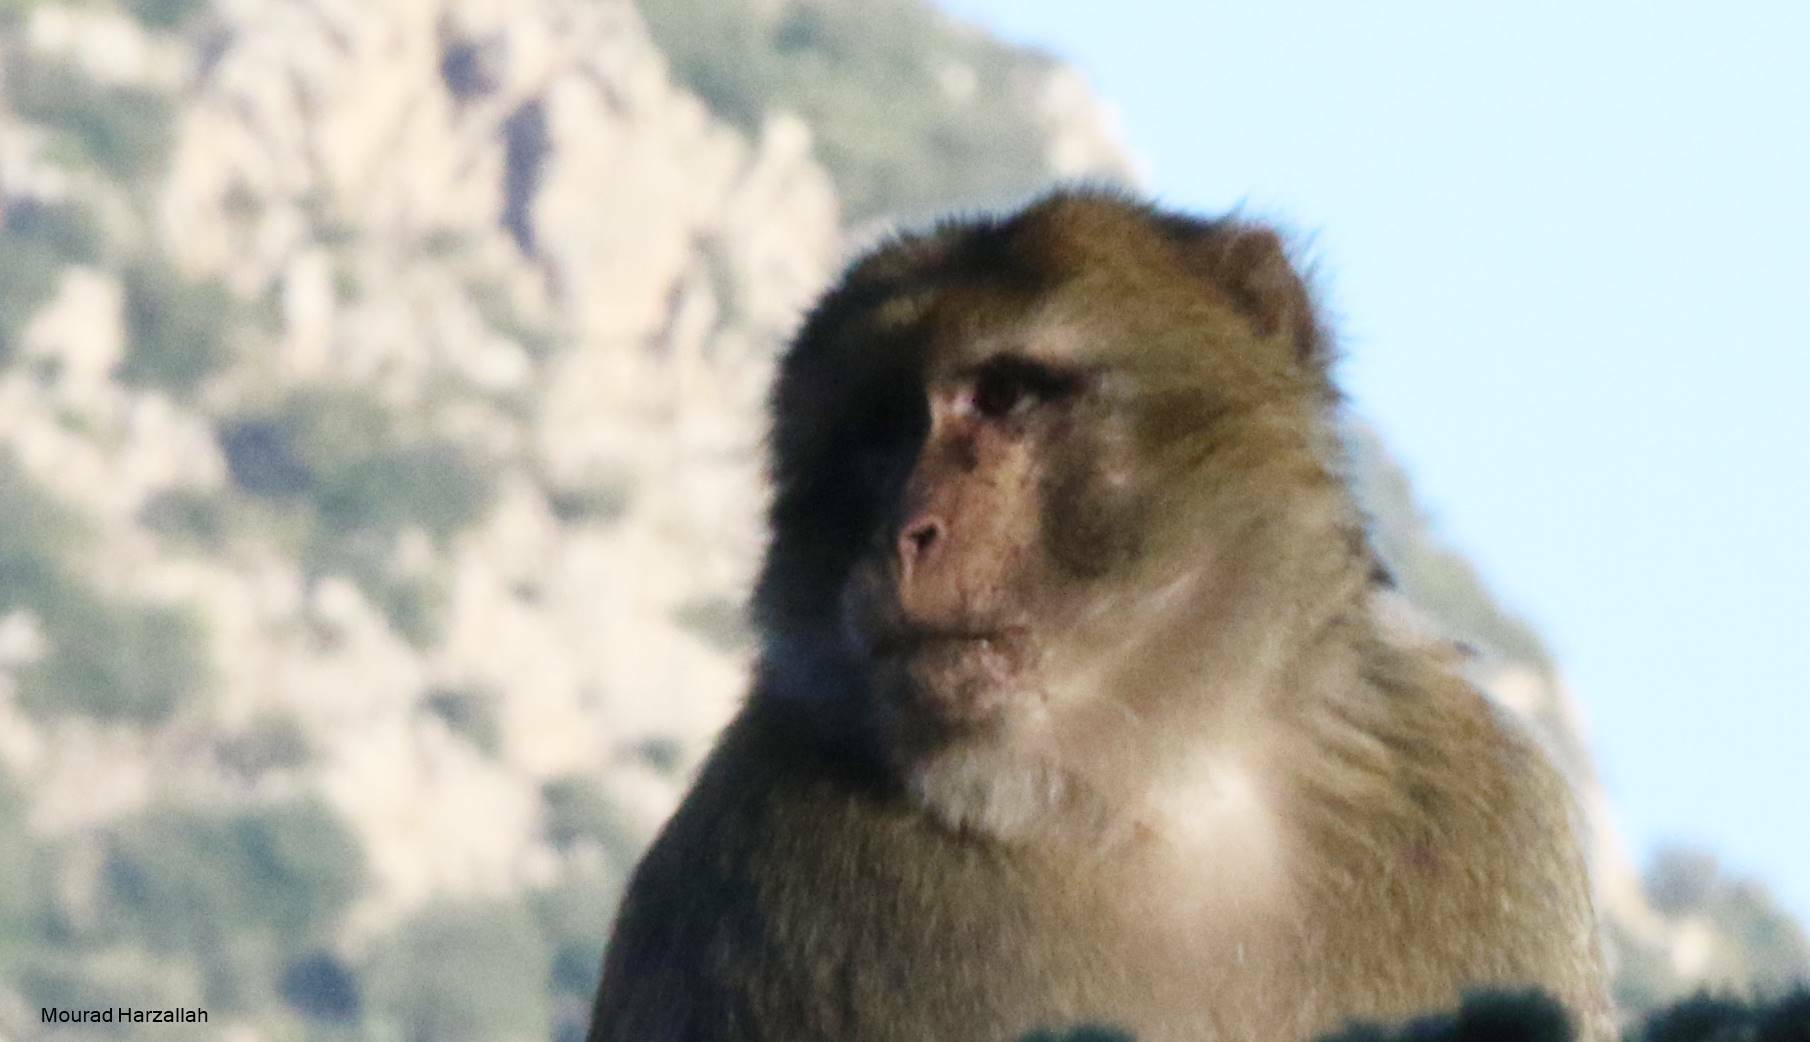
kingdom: Animalia
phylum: Chordata
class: Mammalia
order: Primates
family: Cercopithecidae
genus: Macaca
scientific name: Macaca sylvanus
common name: Barbary macaque
